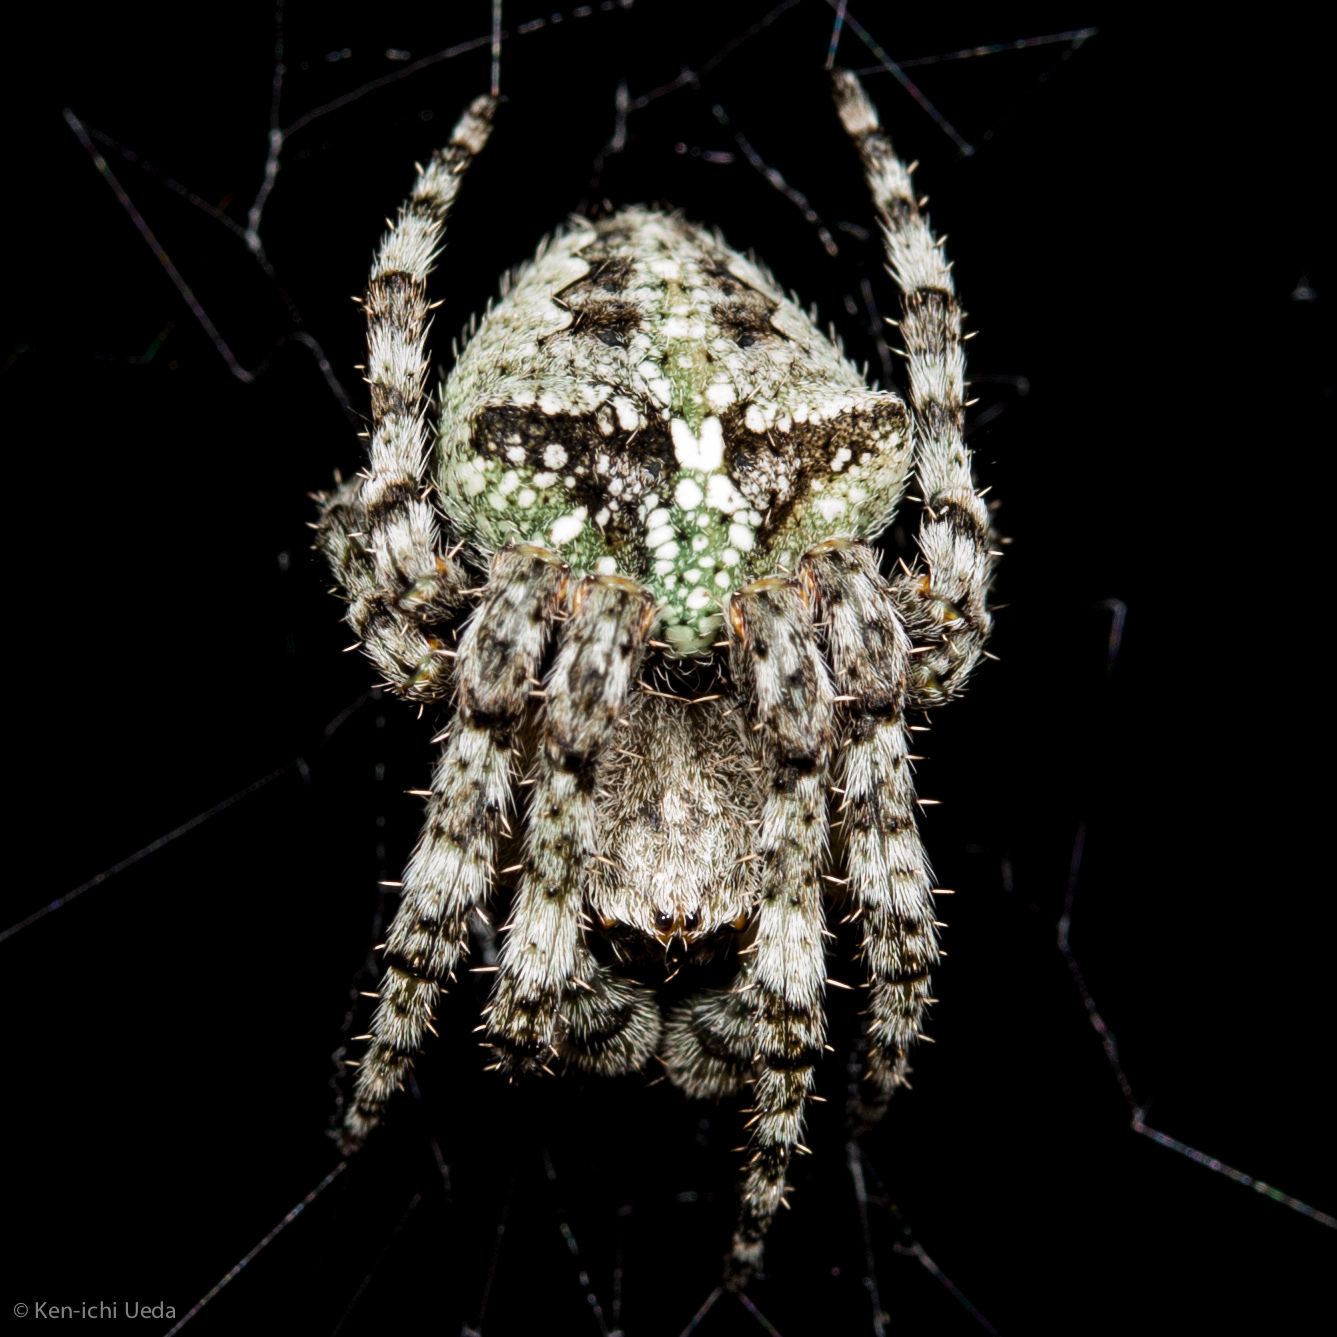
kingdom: Animalia
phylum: Arthropoda
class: Arachnida
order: Araneae
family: Araneidae
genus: Araneus
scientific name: Araneus andrewsi
